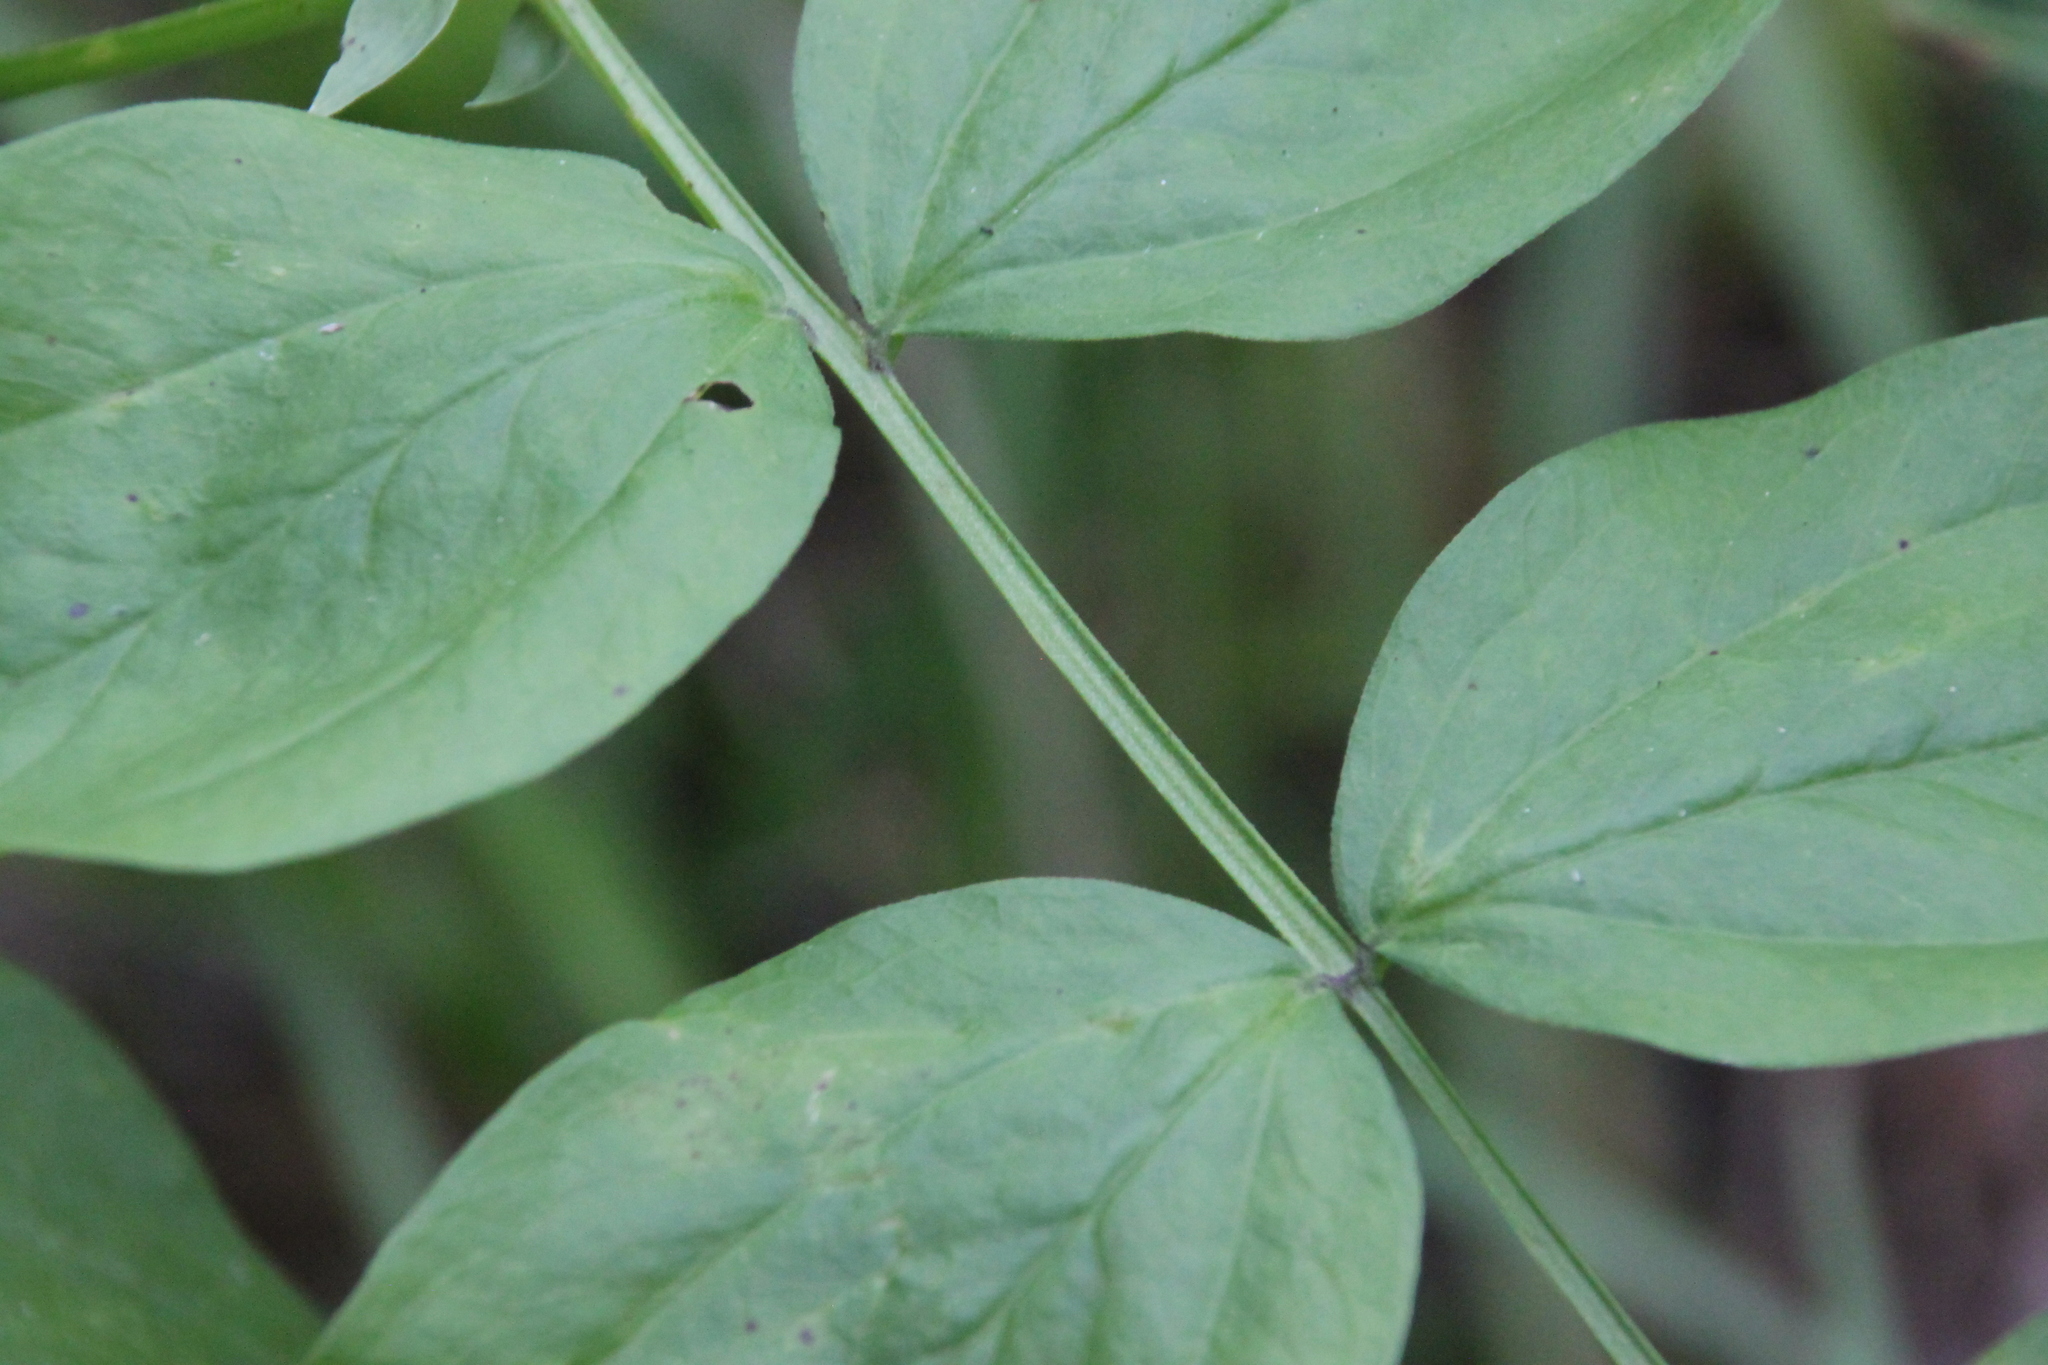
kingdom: Plantae
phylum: Tracheophyta
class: Magnoliopsida
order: Fabales
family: Fabaceae
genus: Lathyrus
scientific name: Lathyrus vernus
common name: Spring pea
